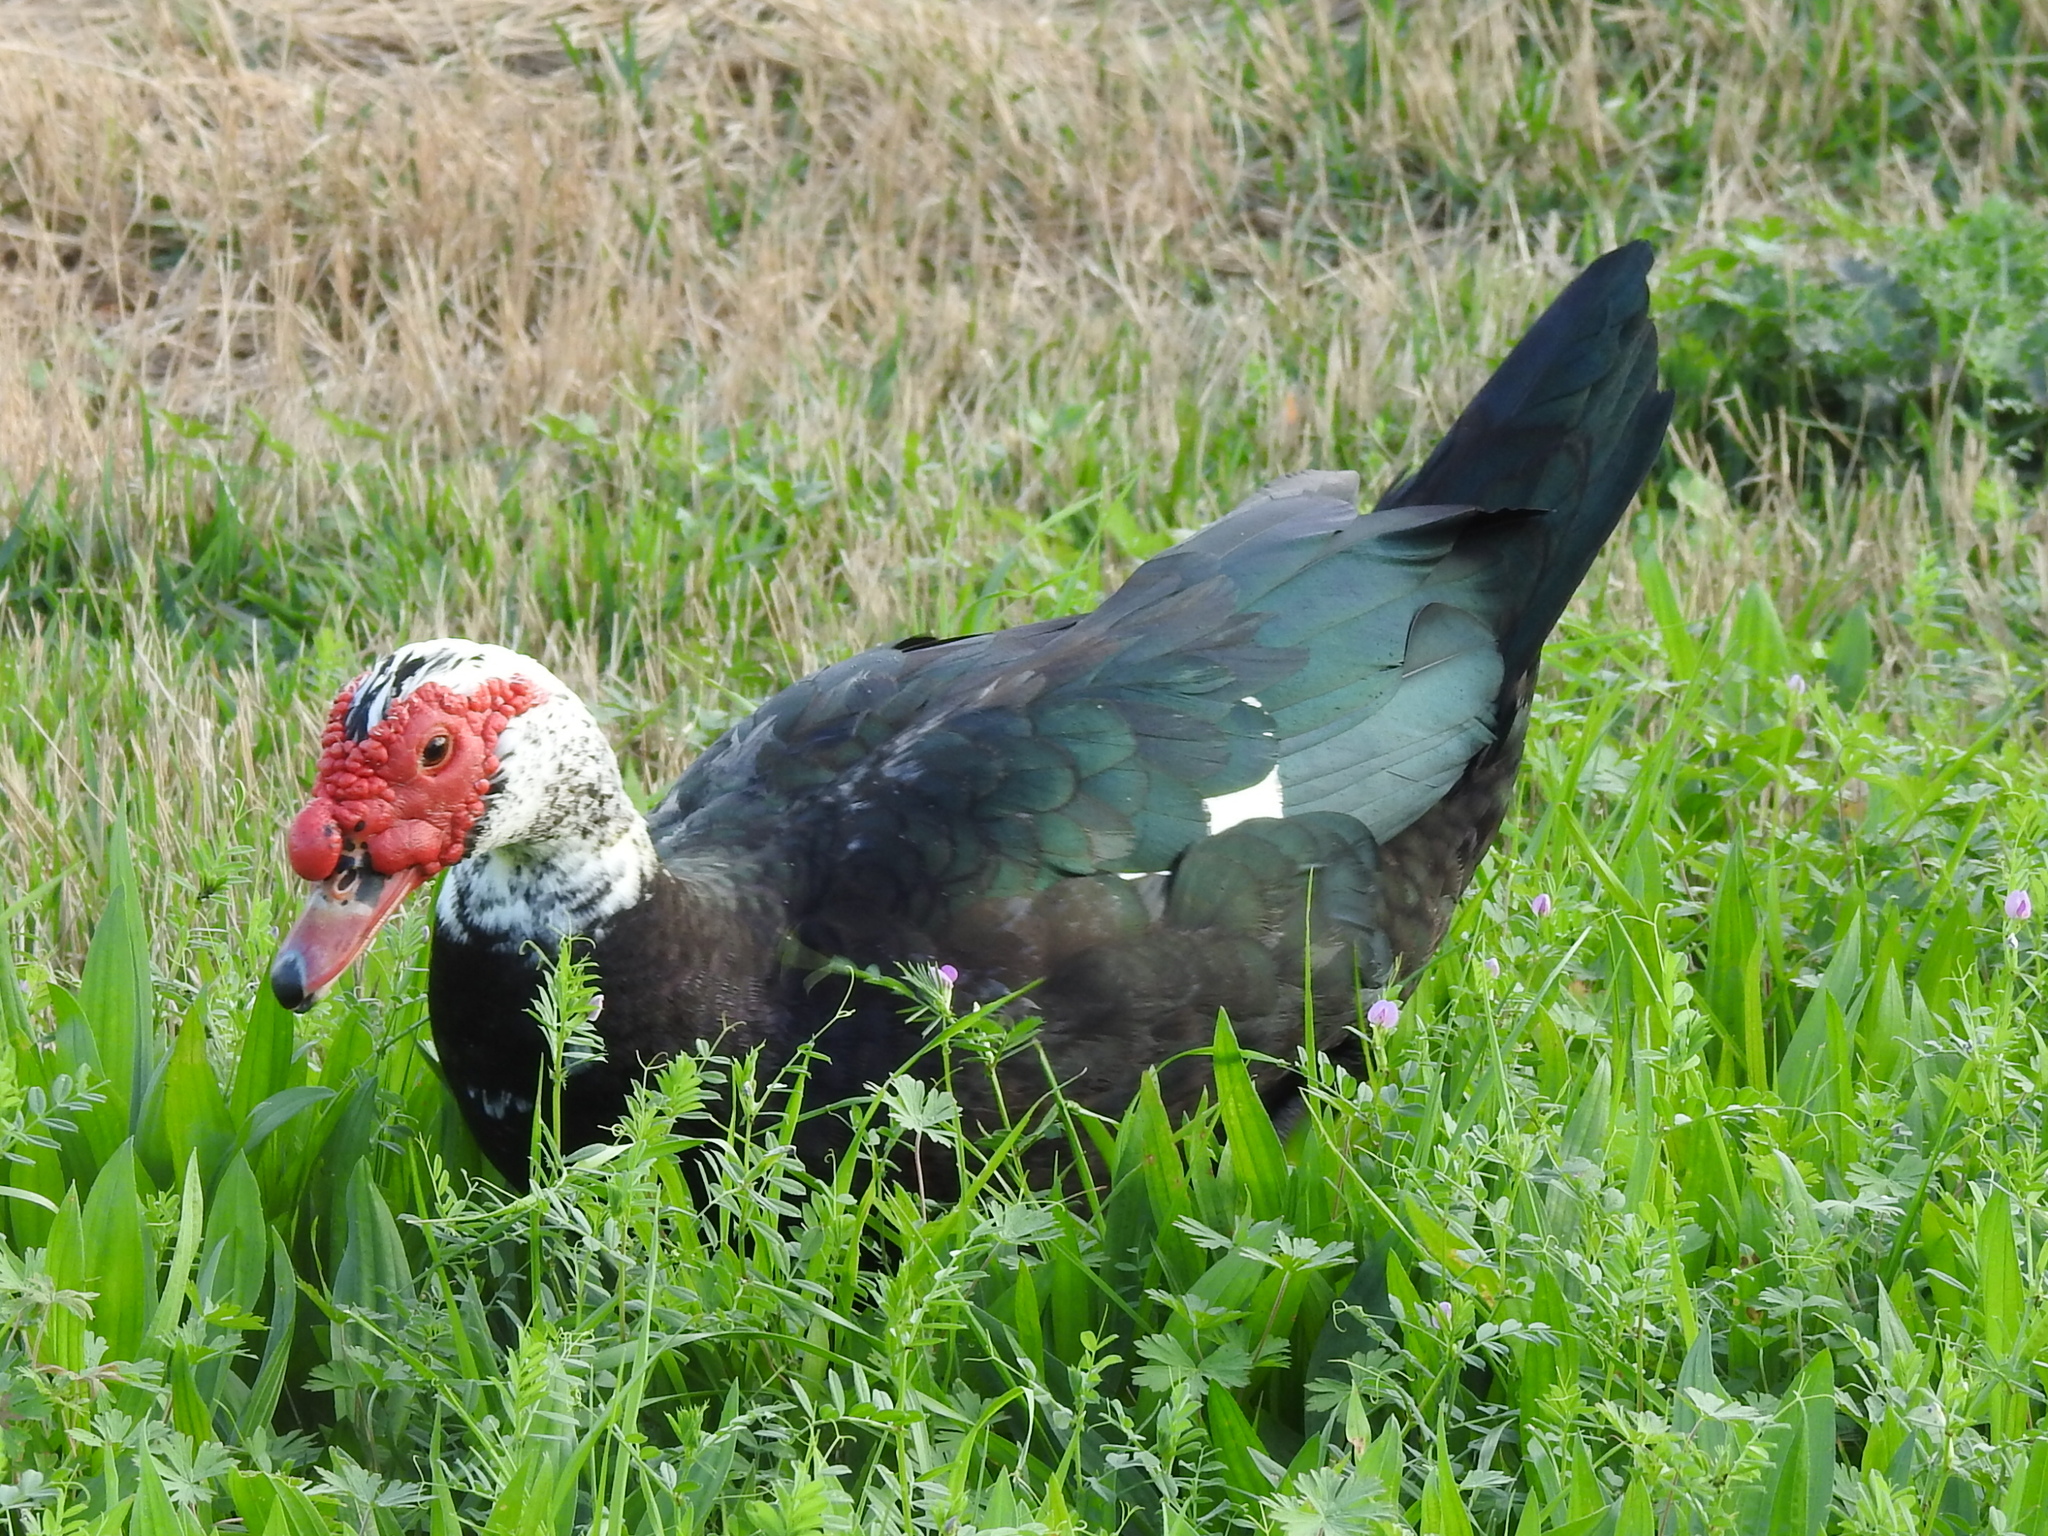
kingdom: Animalia
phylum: Chordata
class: Aves
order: Anseriformes
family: Anatidae
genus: Cairina
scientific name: Cairina moschata
